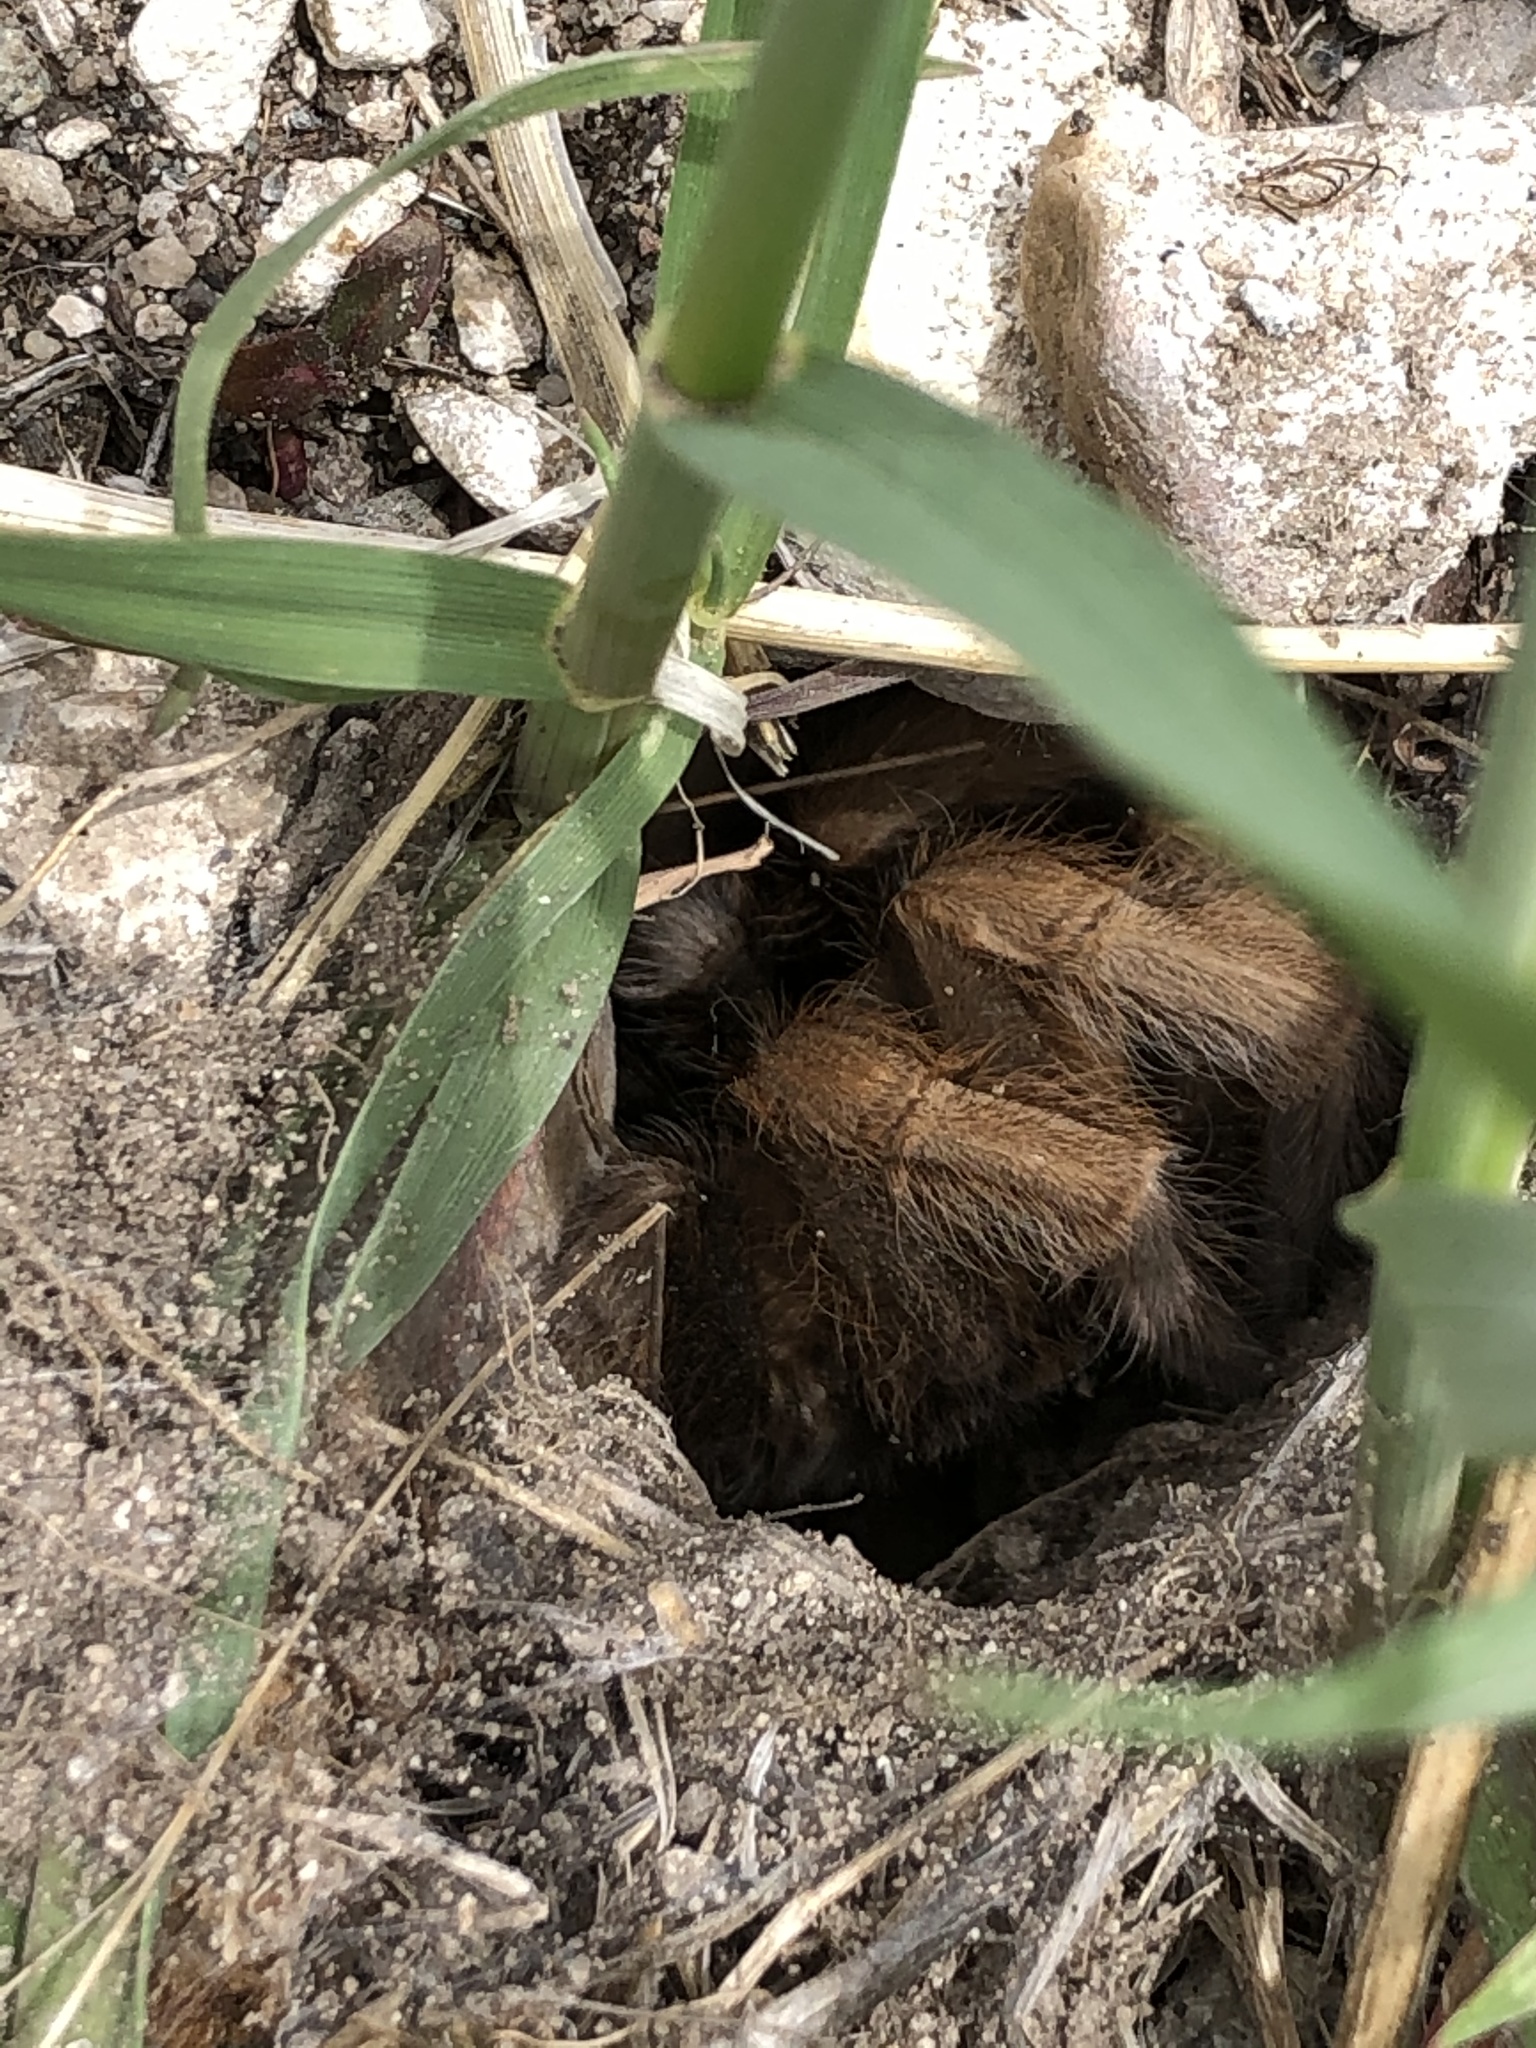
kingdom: Animalia
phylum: Arthropoda
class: Arachnida
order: Araneae
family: Theraphosidae
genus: Aphonopelma
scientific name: Aphonopelma iodius
